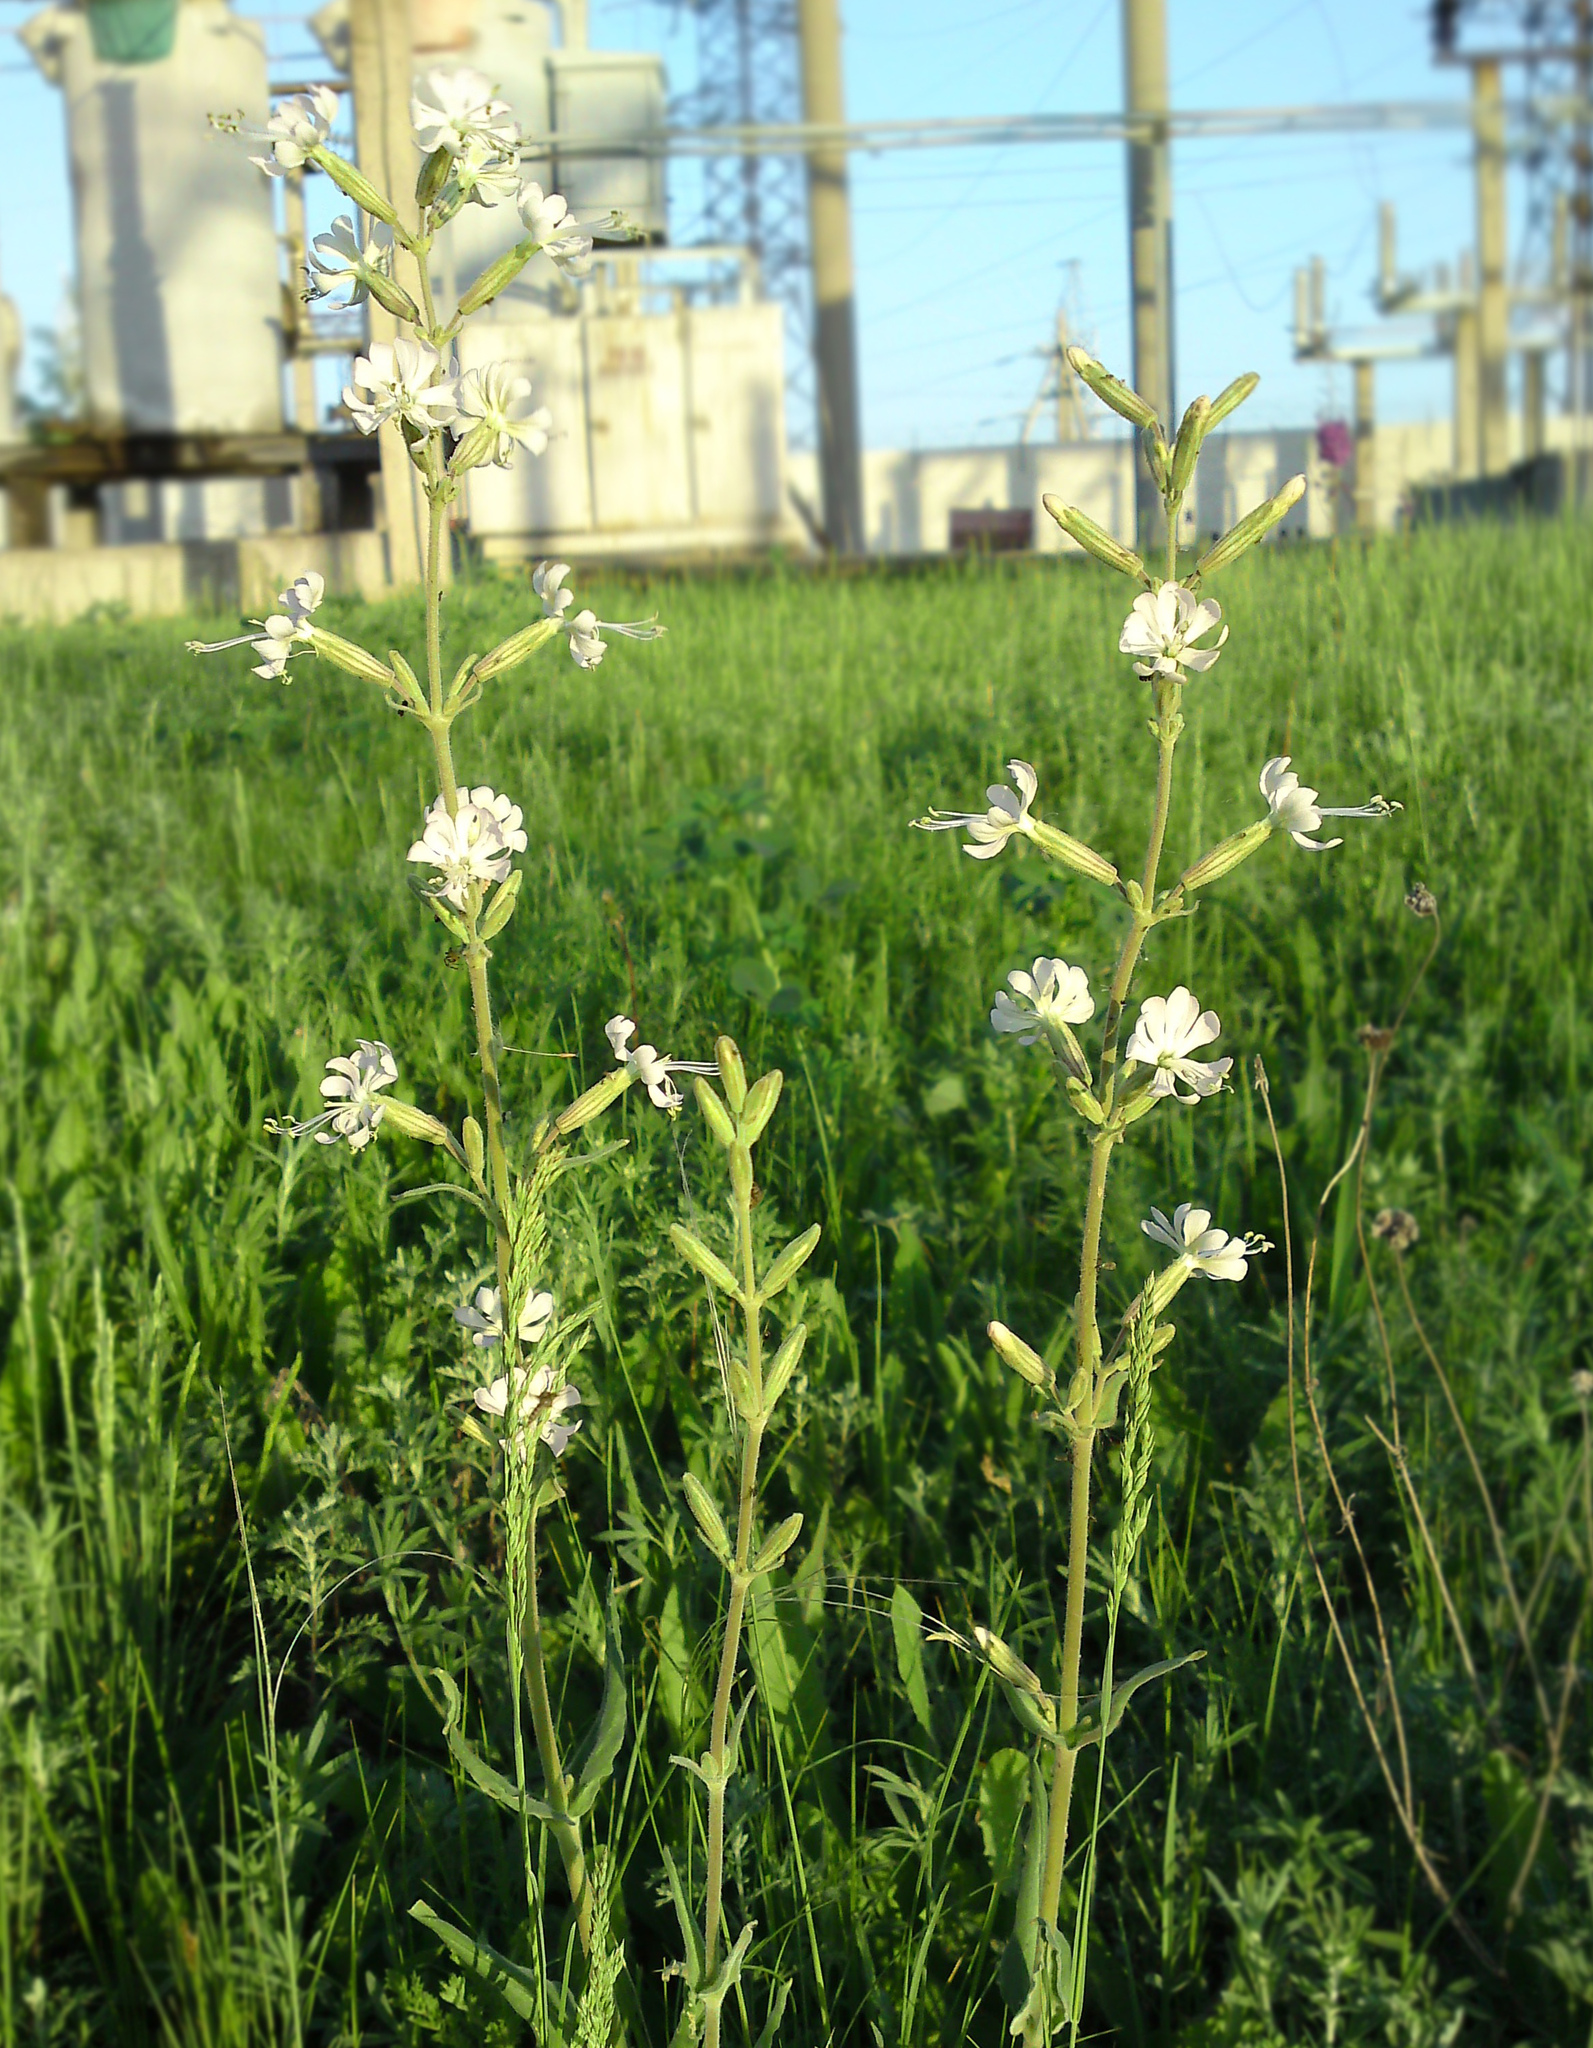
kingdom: Plantae
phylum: Tracheophyta
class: Magnoliopsida
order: Caryophyllales
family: Caryophyllaceae
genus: Silene
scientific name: Silene viscosa
